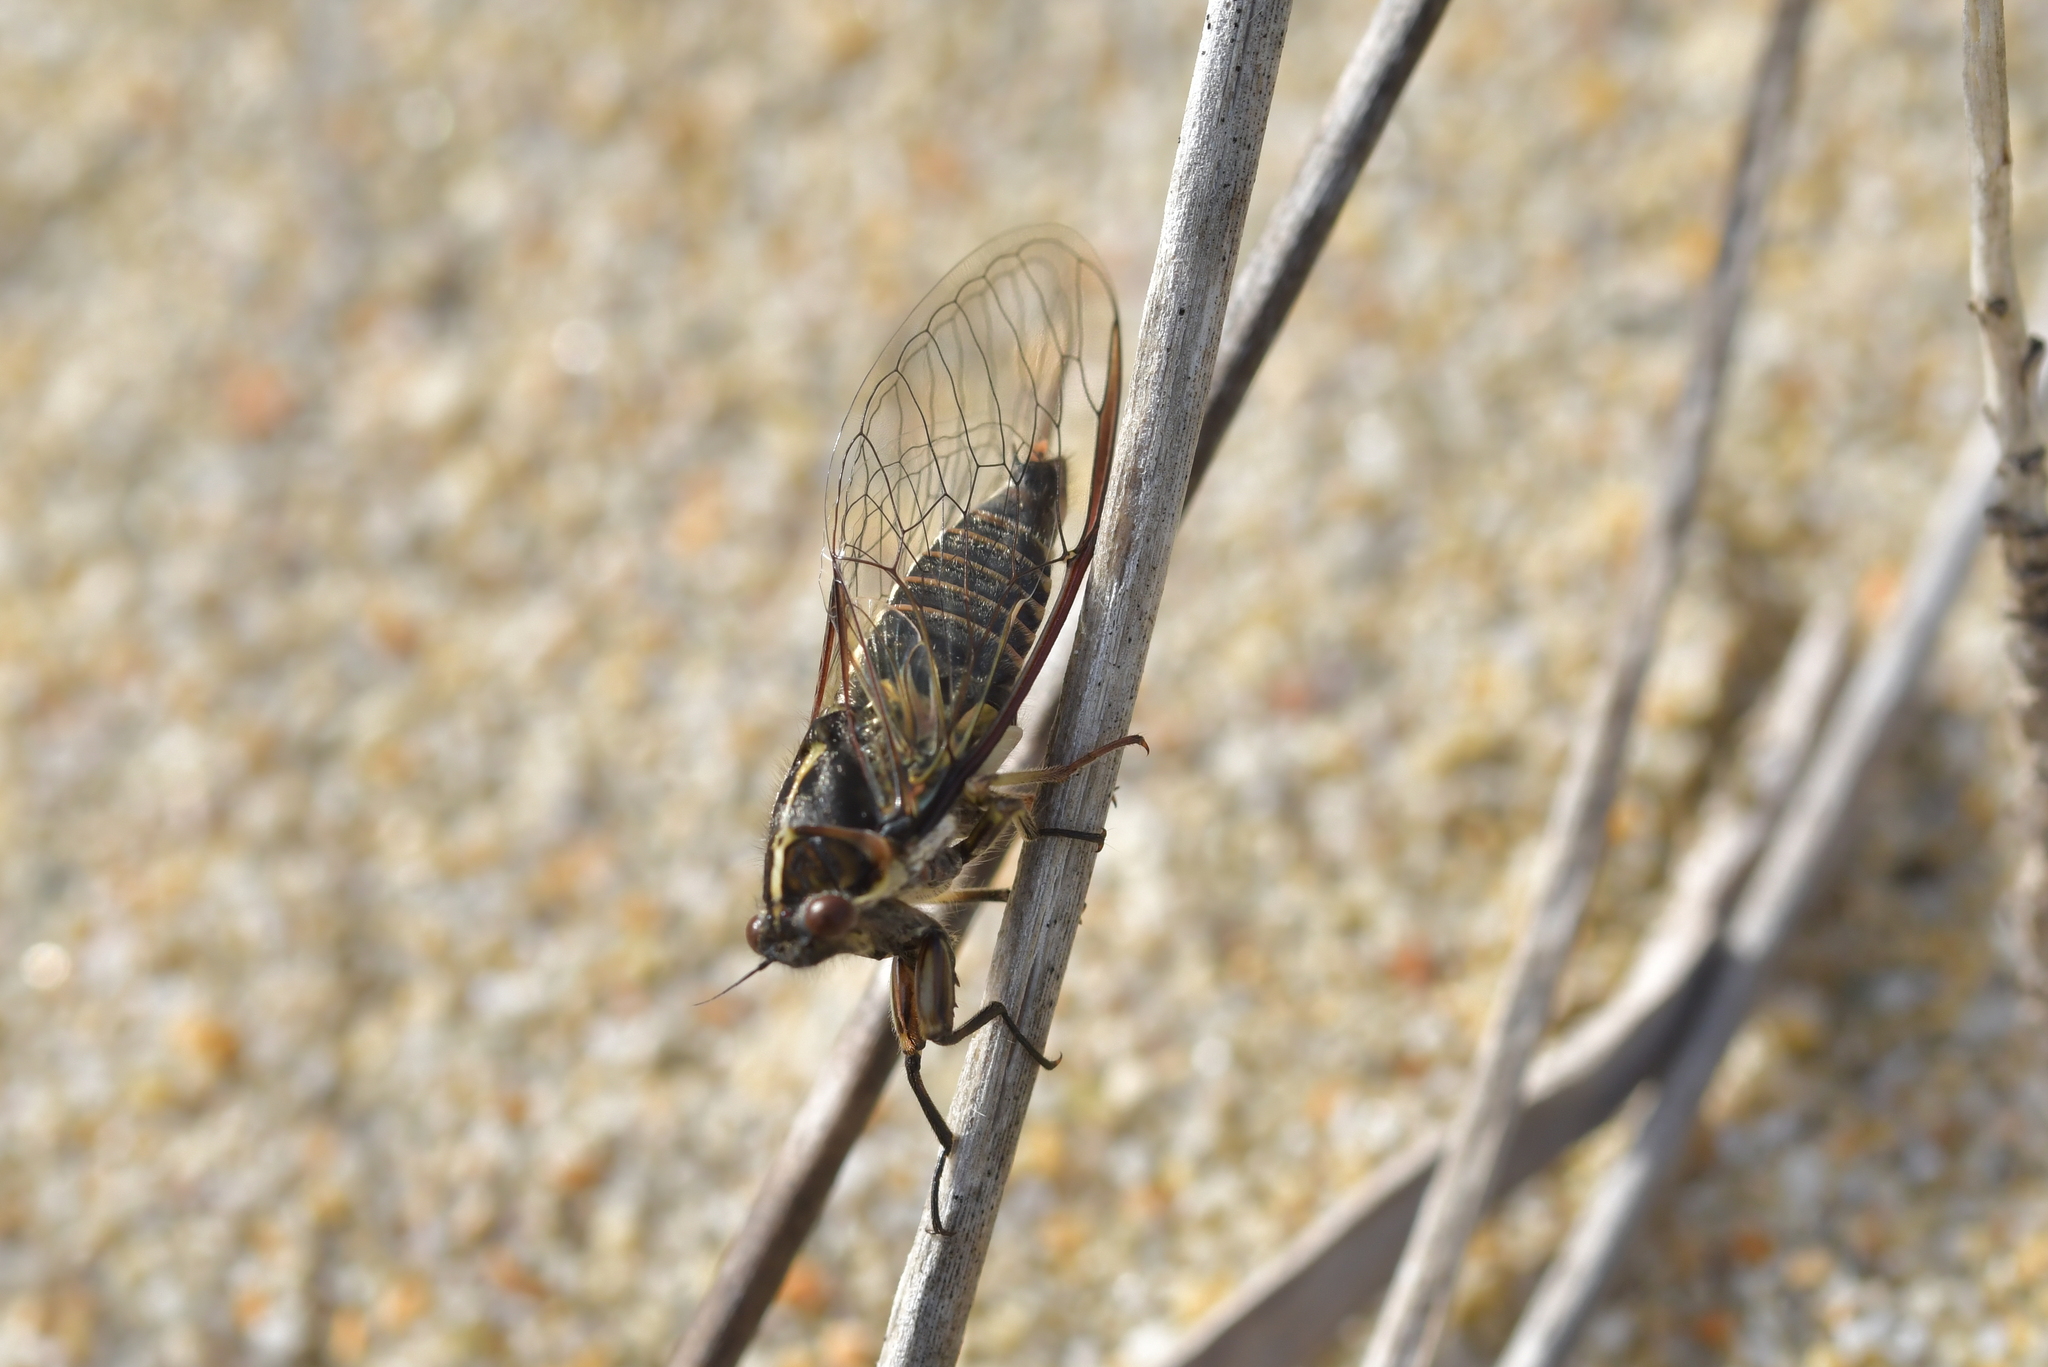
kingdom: Animalia
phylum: Arthropoda
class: Insecta
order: Hemiptera
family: Cicadidae
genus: Kikihia
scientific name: Kikihia longula
